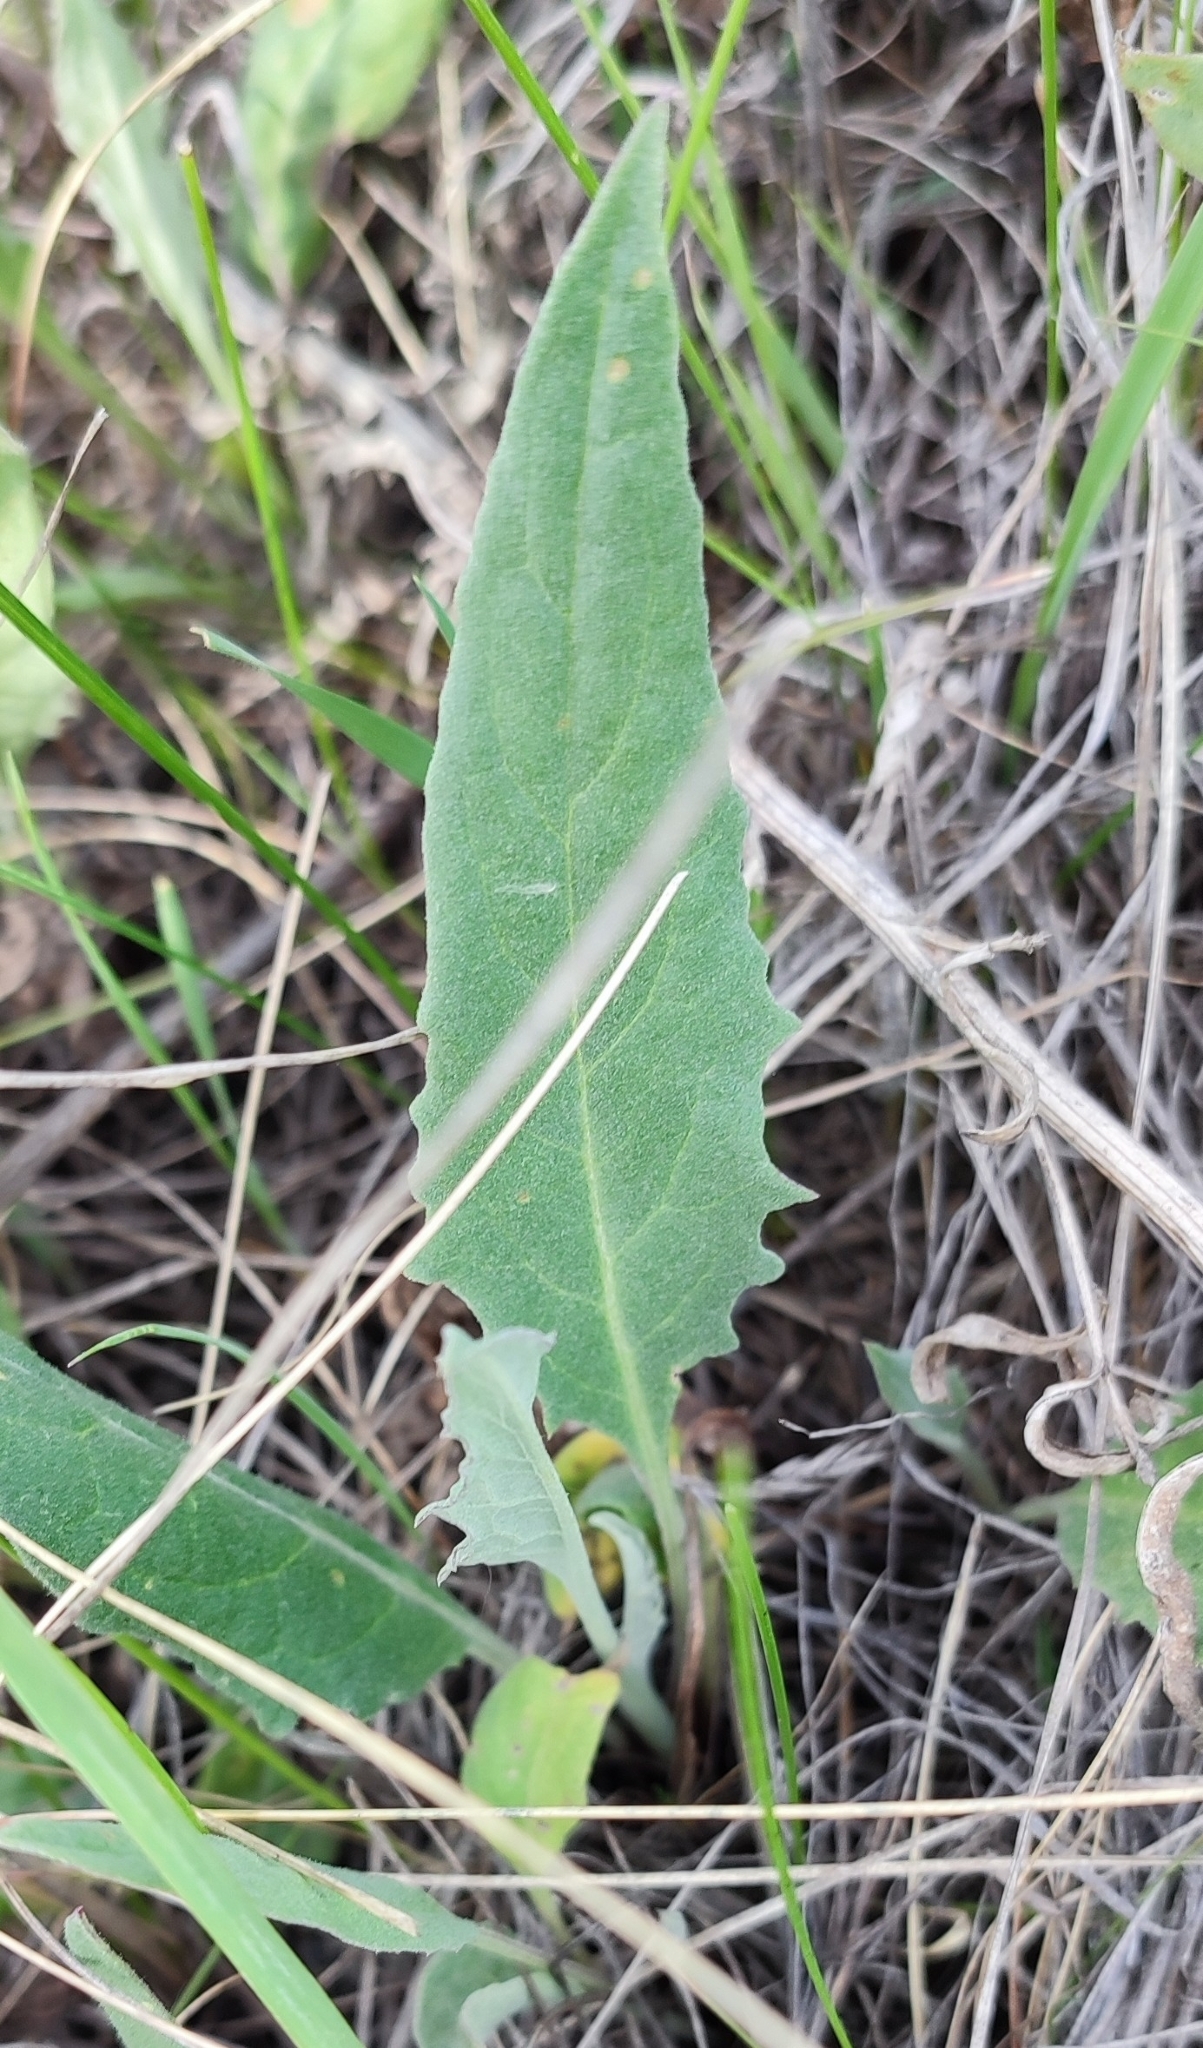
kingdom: Plantae
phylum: Tracheophyta
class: Magnoliopsida
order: Asterales
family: Asteraceae
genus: Saussurea
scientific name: Saussurea amara
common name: Alberta sawwort
